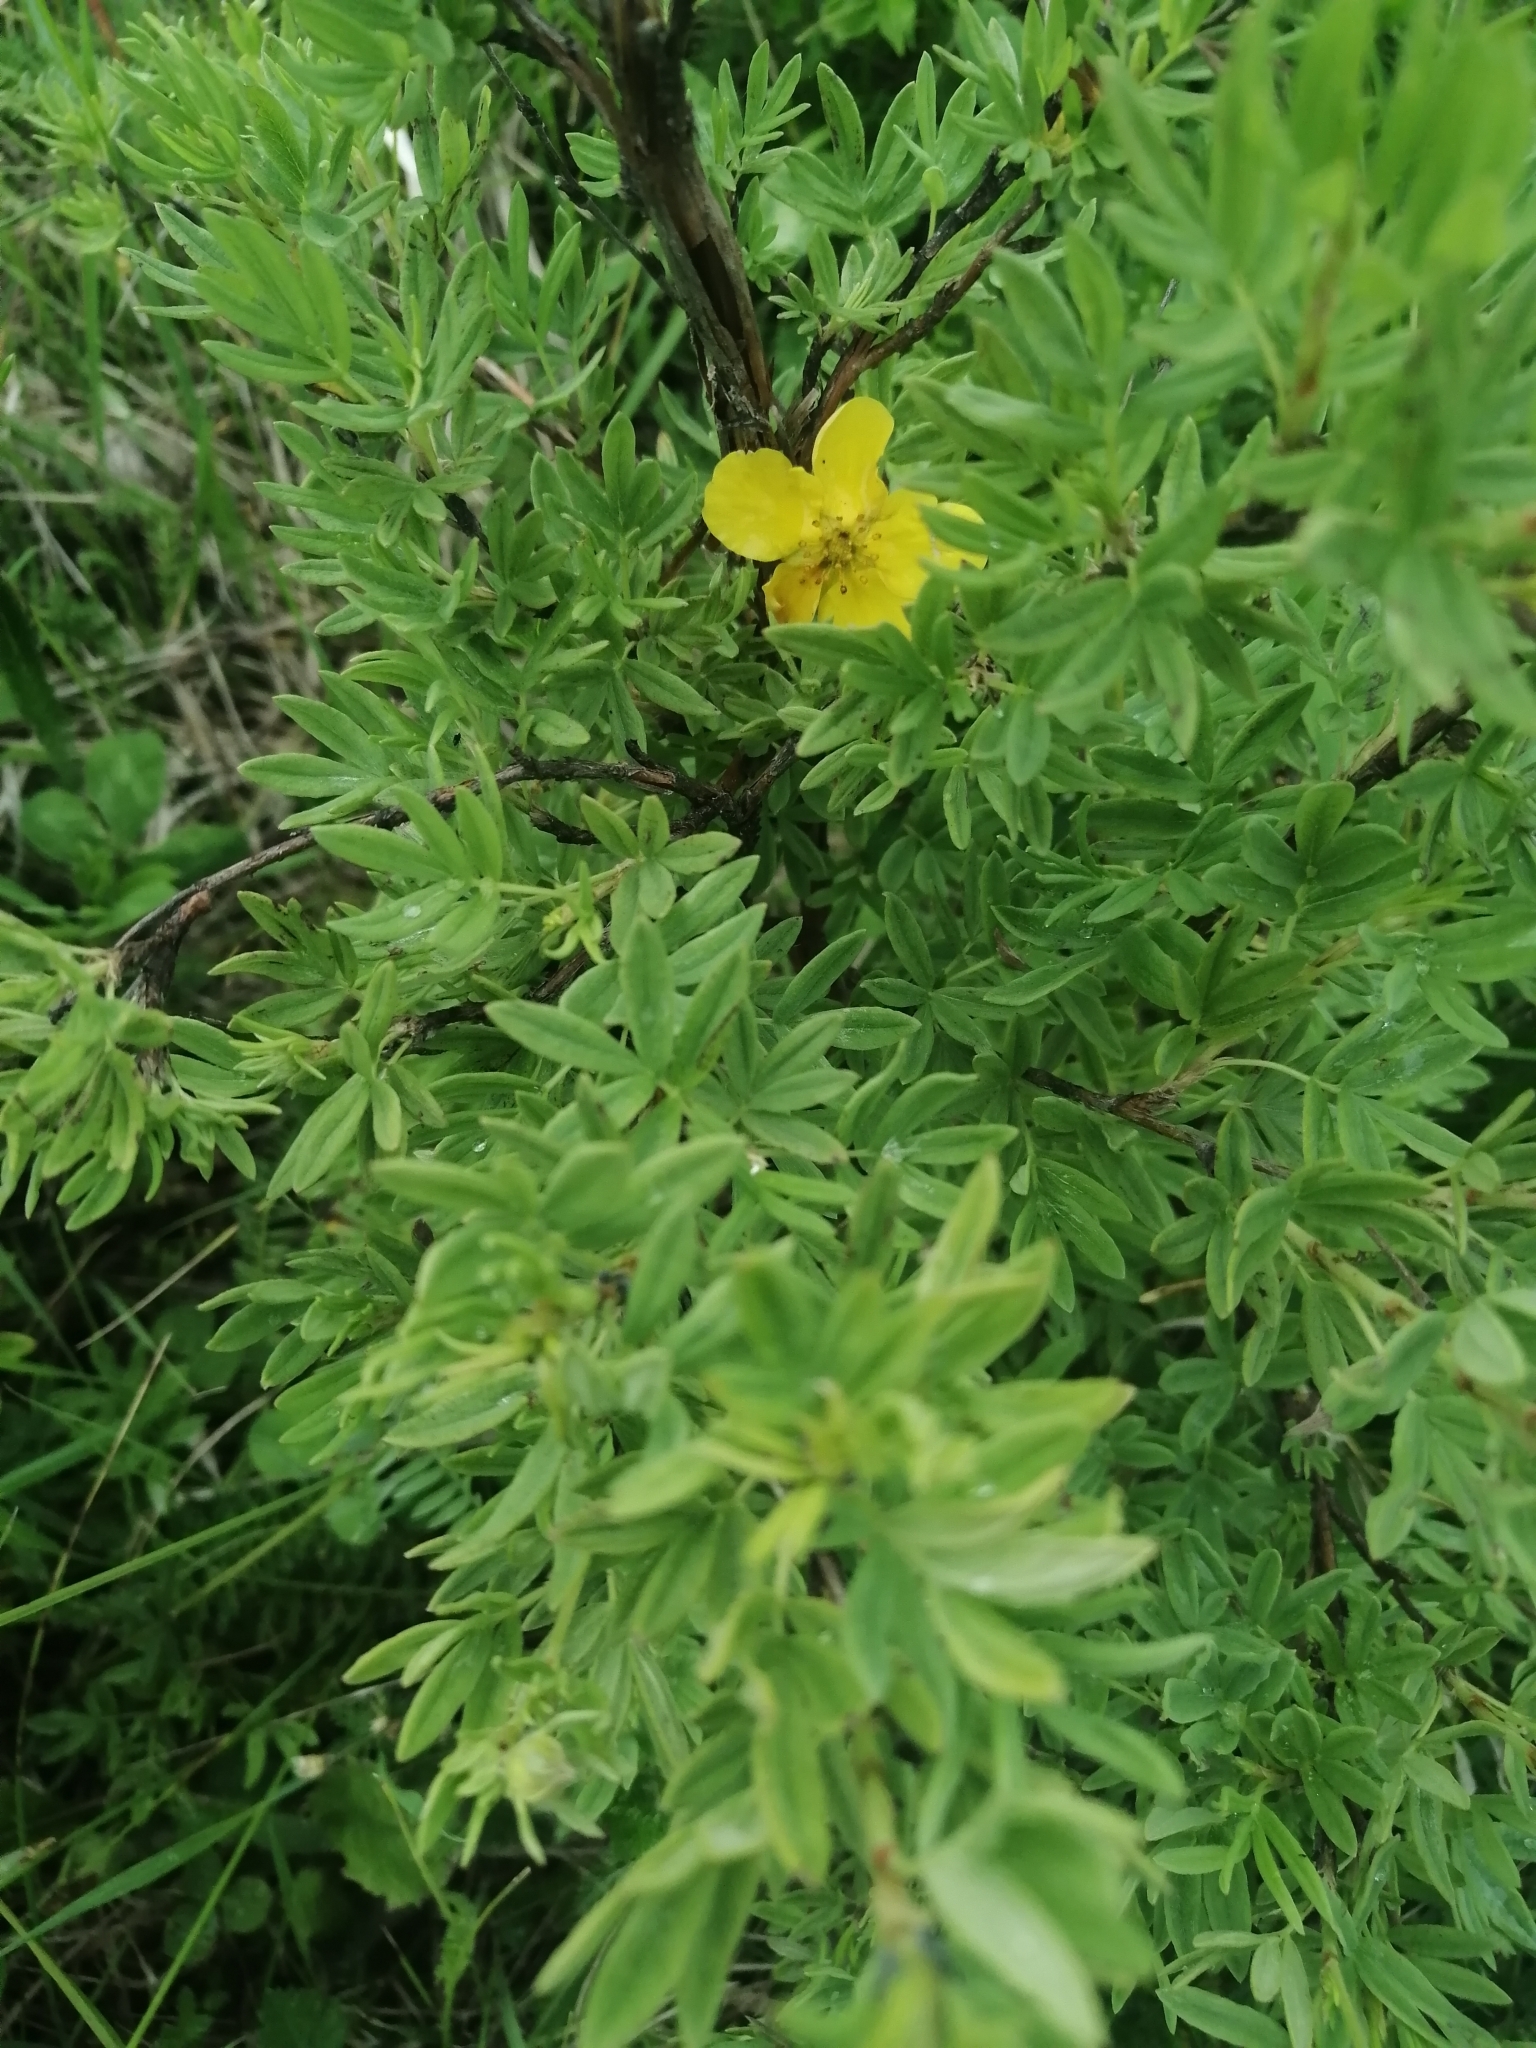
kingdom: Plantae
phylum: Tracheophyta
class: Magnoliopsida
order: Rosales
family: Rosaceae
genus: Dasiphora
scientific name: Dasiphora fruticosa
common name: Shrubby cinquefoil
